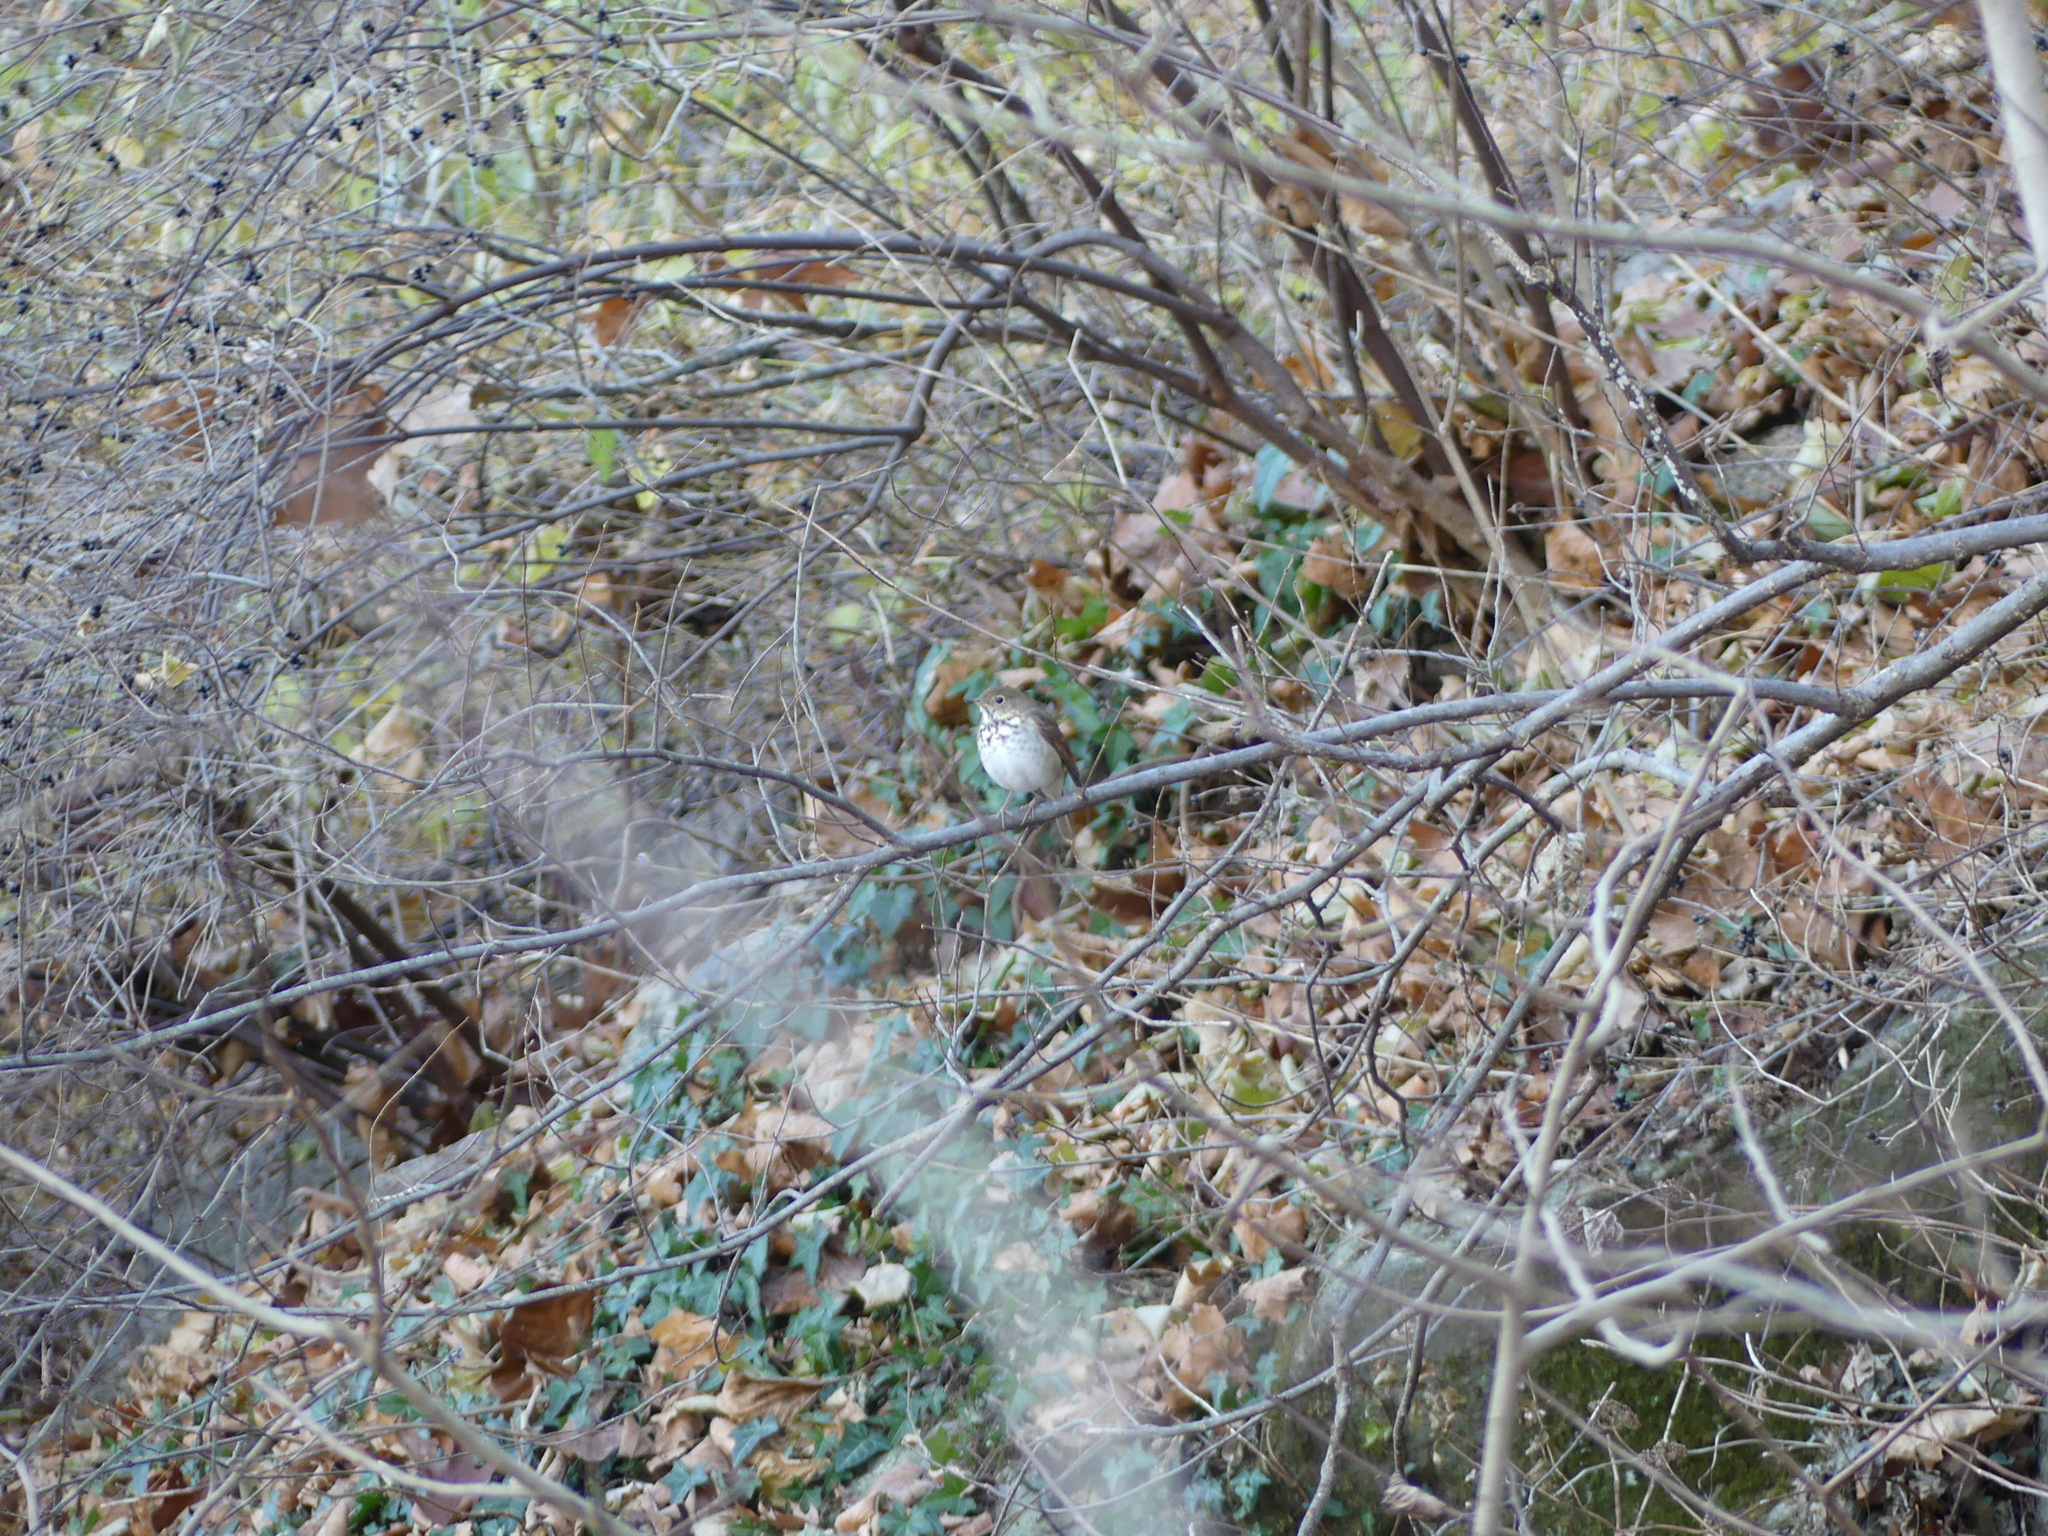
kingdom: Animalia
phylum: Chordata
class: Aves
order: Passeriformes
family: Turdidae
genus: Catharus
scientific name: Catharus guttatus
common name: Hermit thrush
